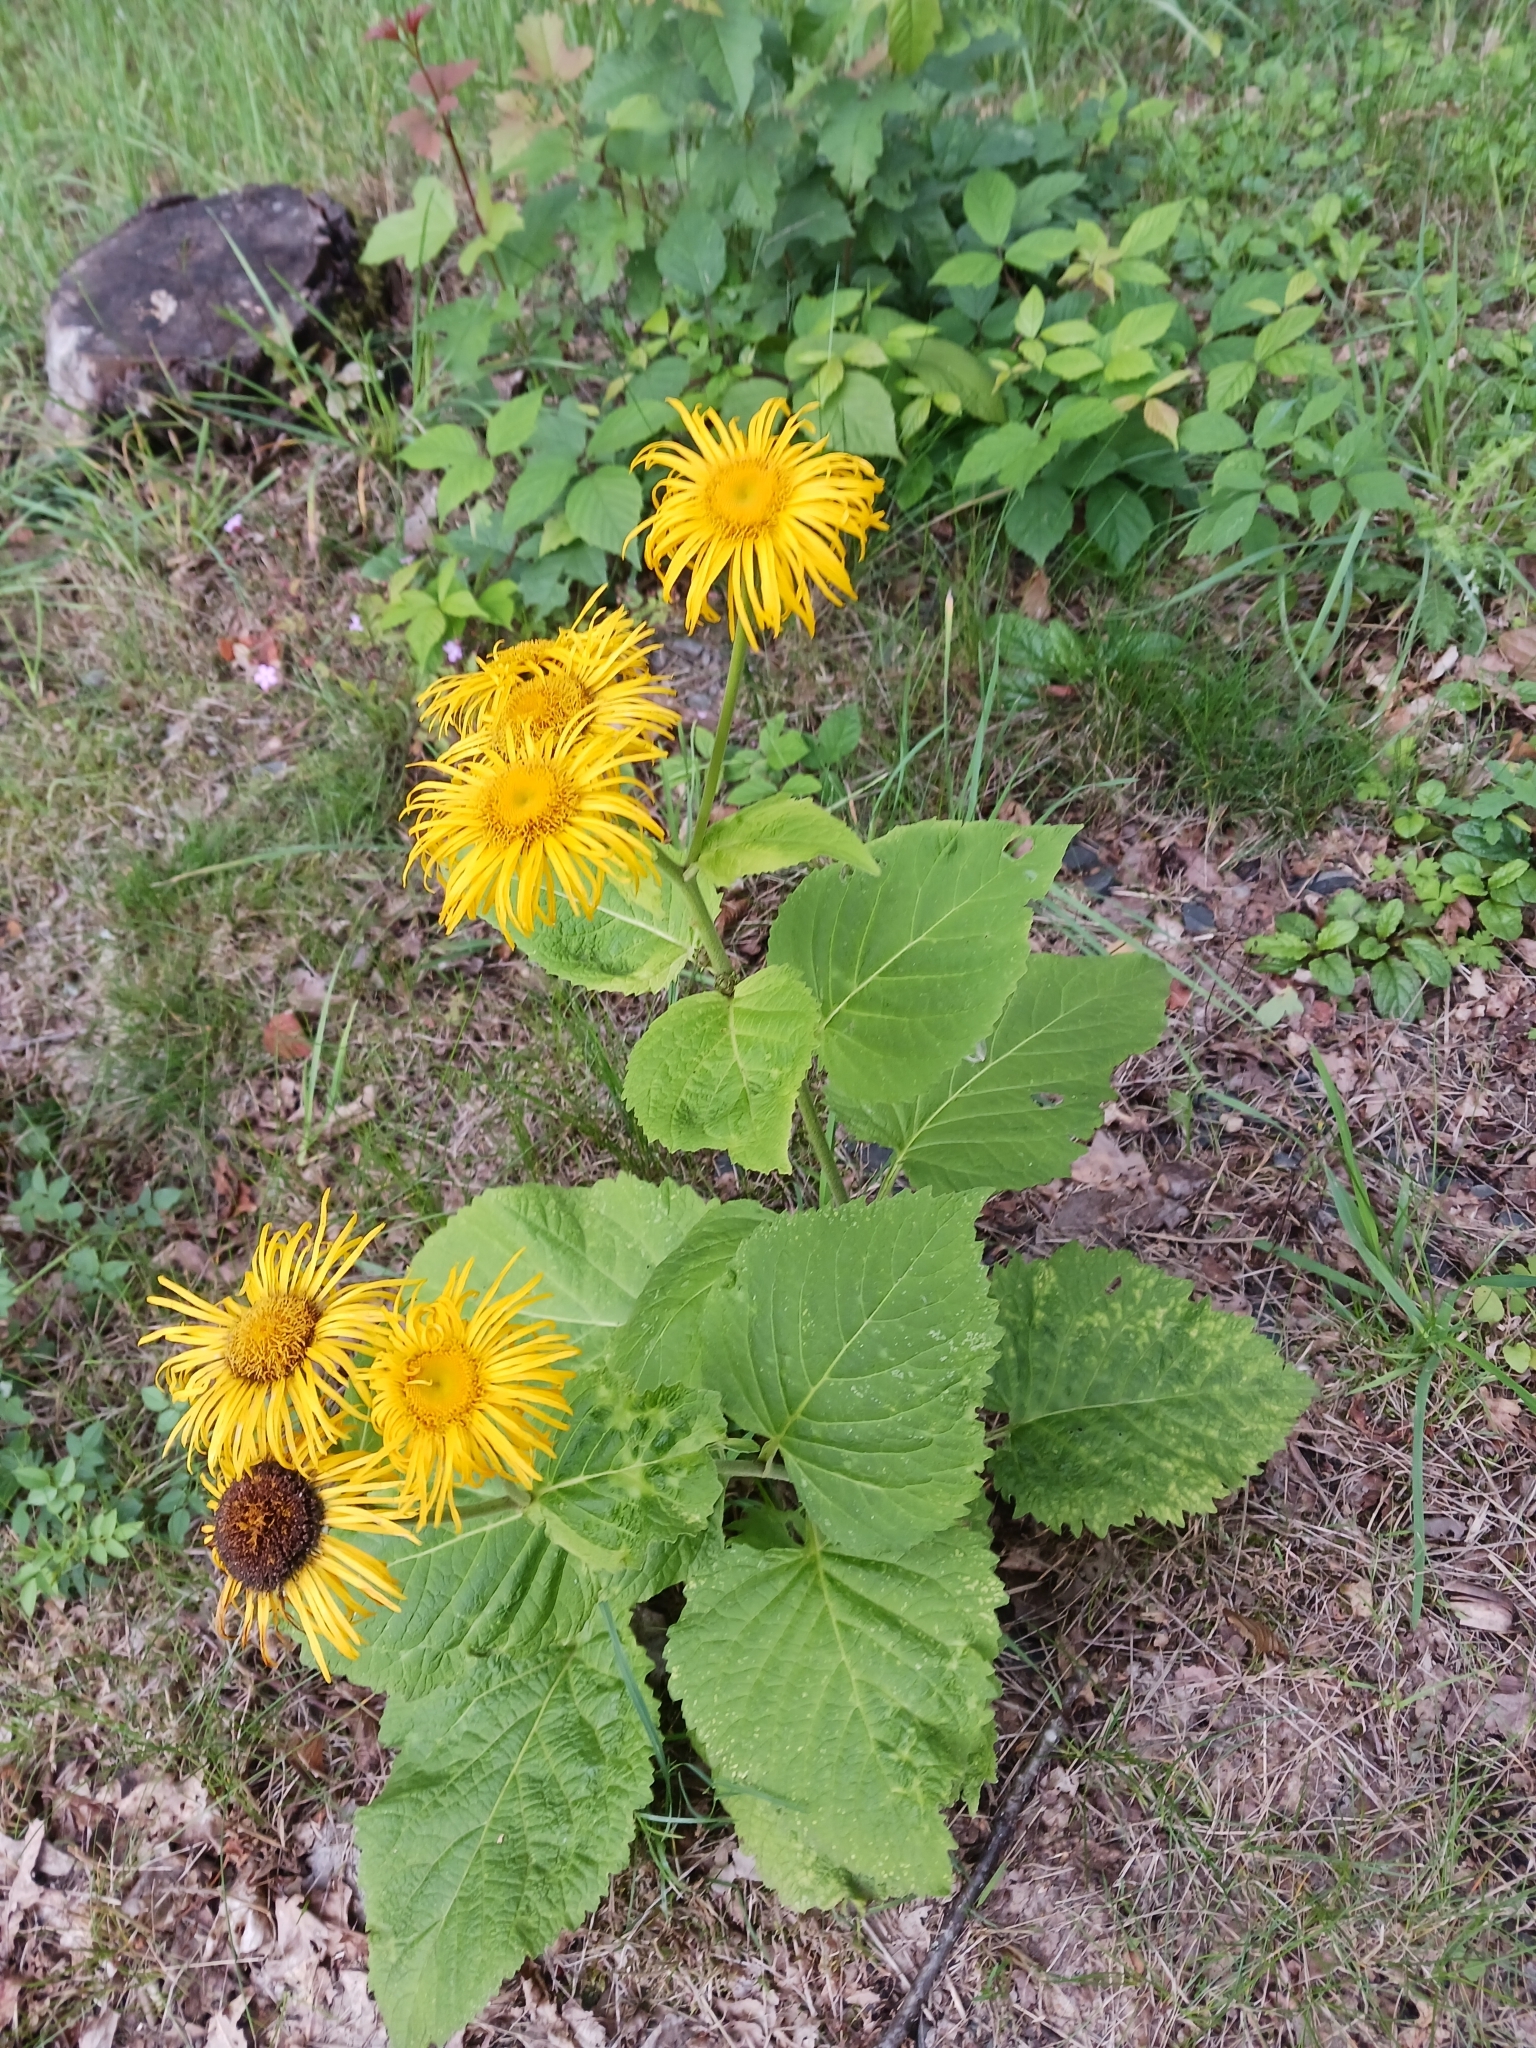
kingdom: Plantae
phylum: Tracheophyta
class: Magnoliopsida
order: Asterales
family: Asteraceae
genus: Telekia
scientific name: Telekia speciosa
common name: Yellow oxeye
